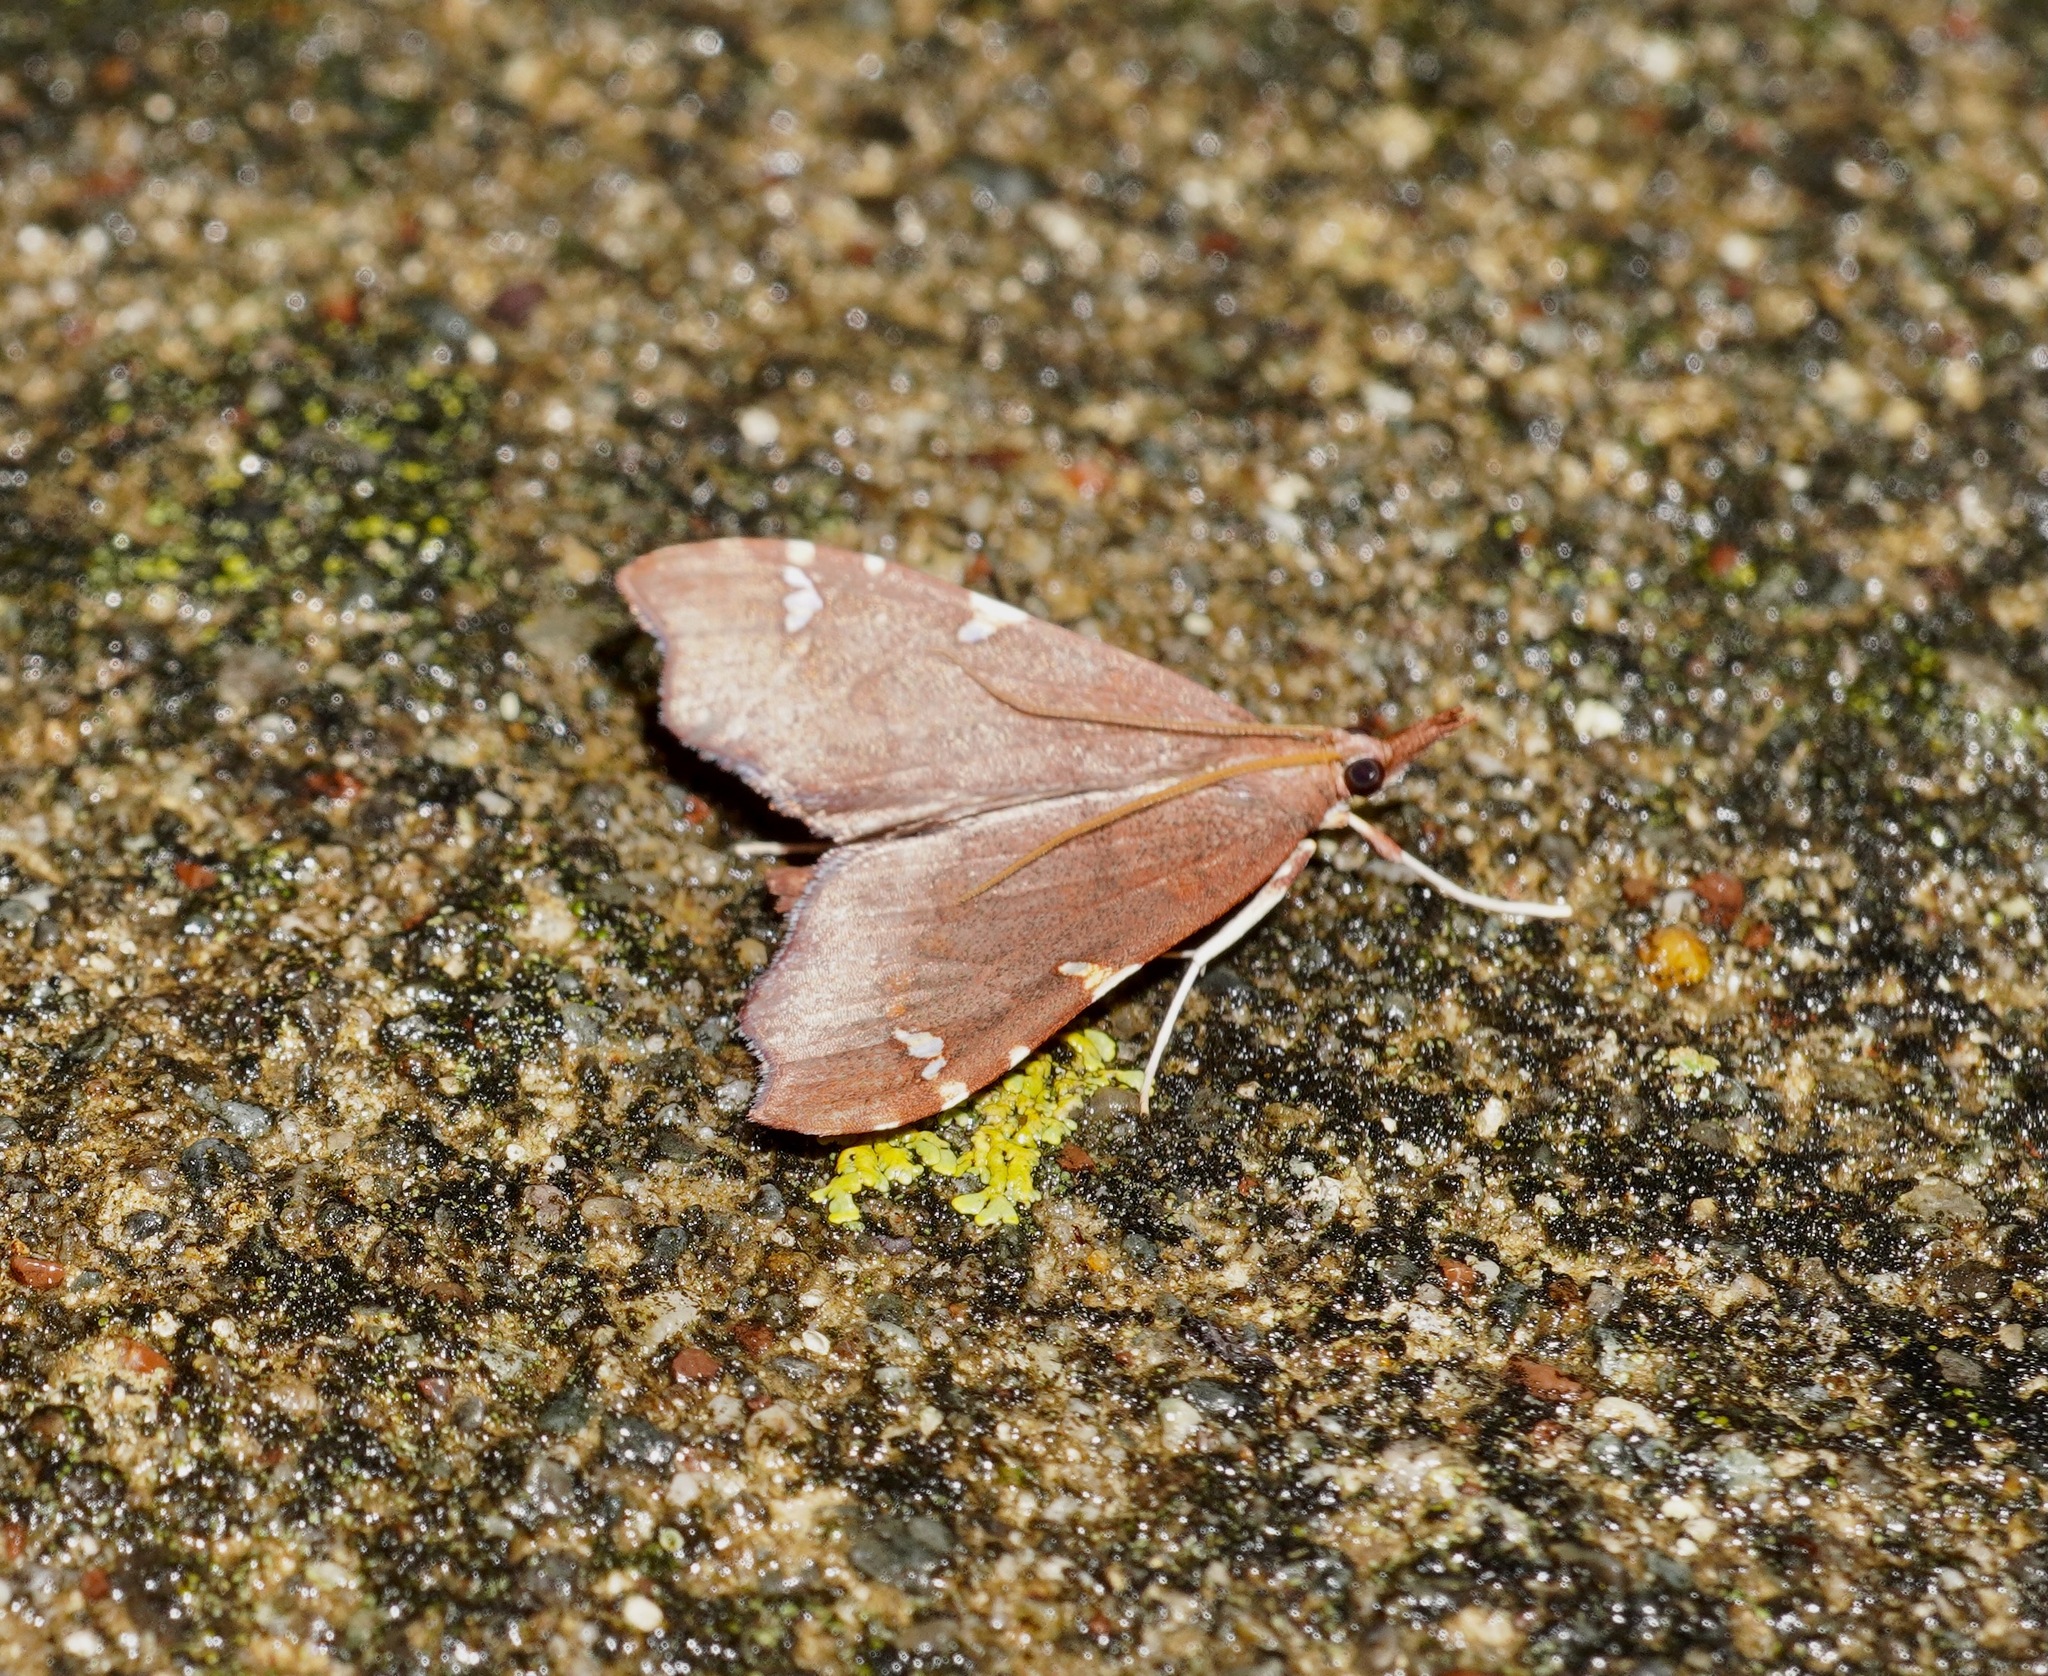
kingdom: Animalia
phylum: Arthropoda
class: Insecta
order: Lepidoptera
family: Crambidae
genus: Deana
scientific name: Deana hybreasalis
